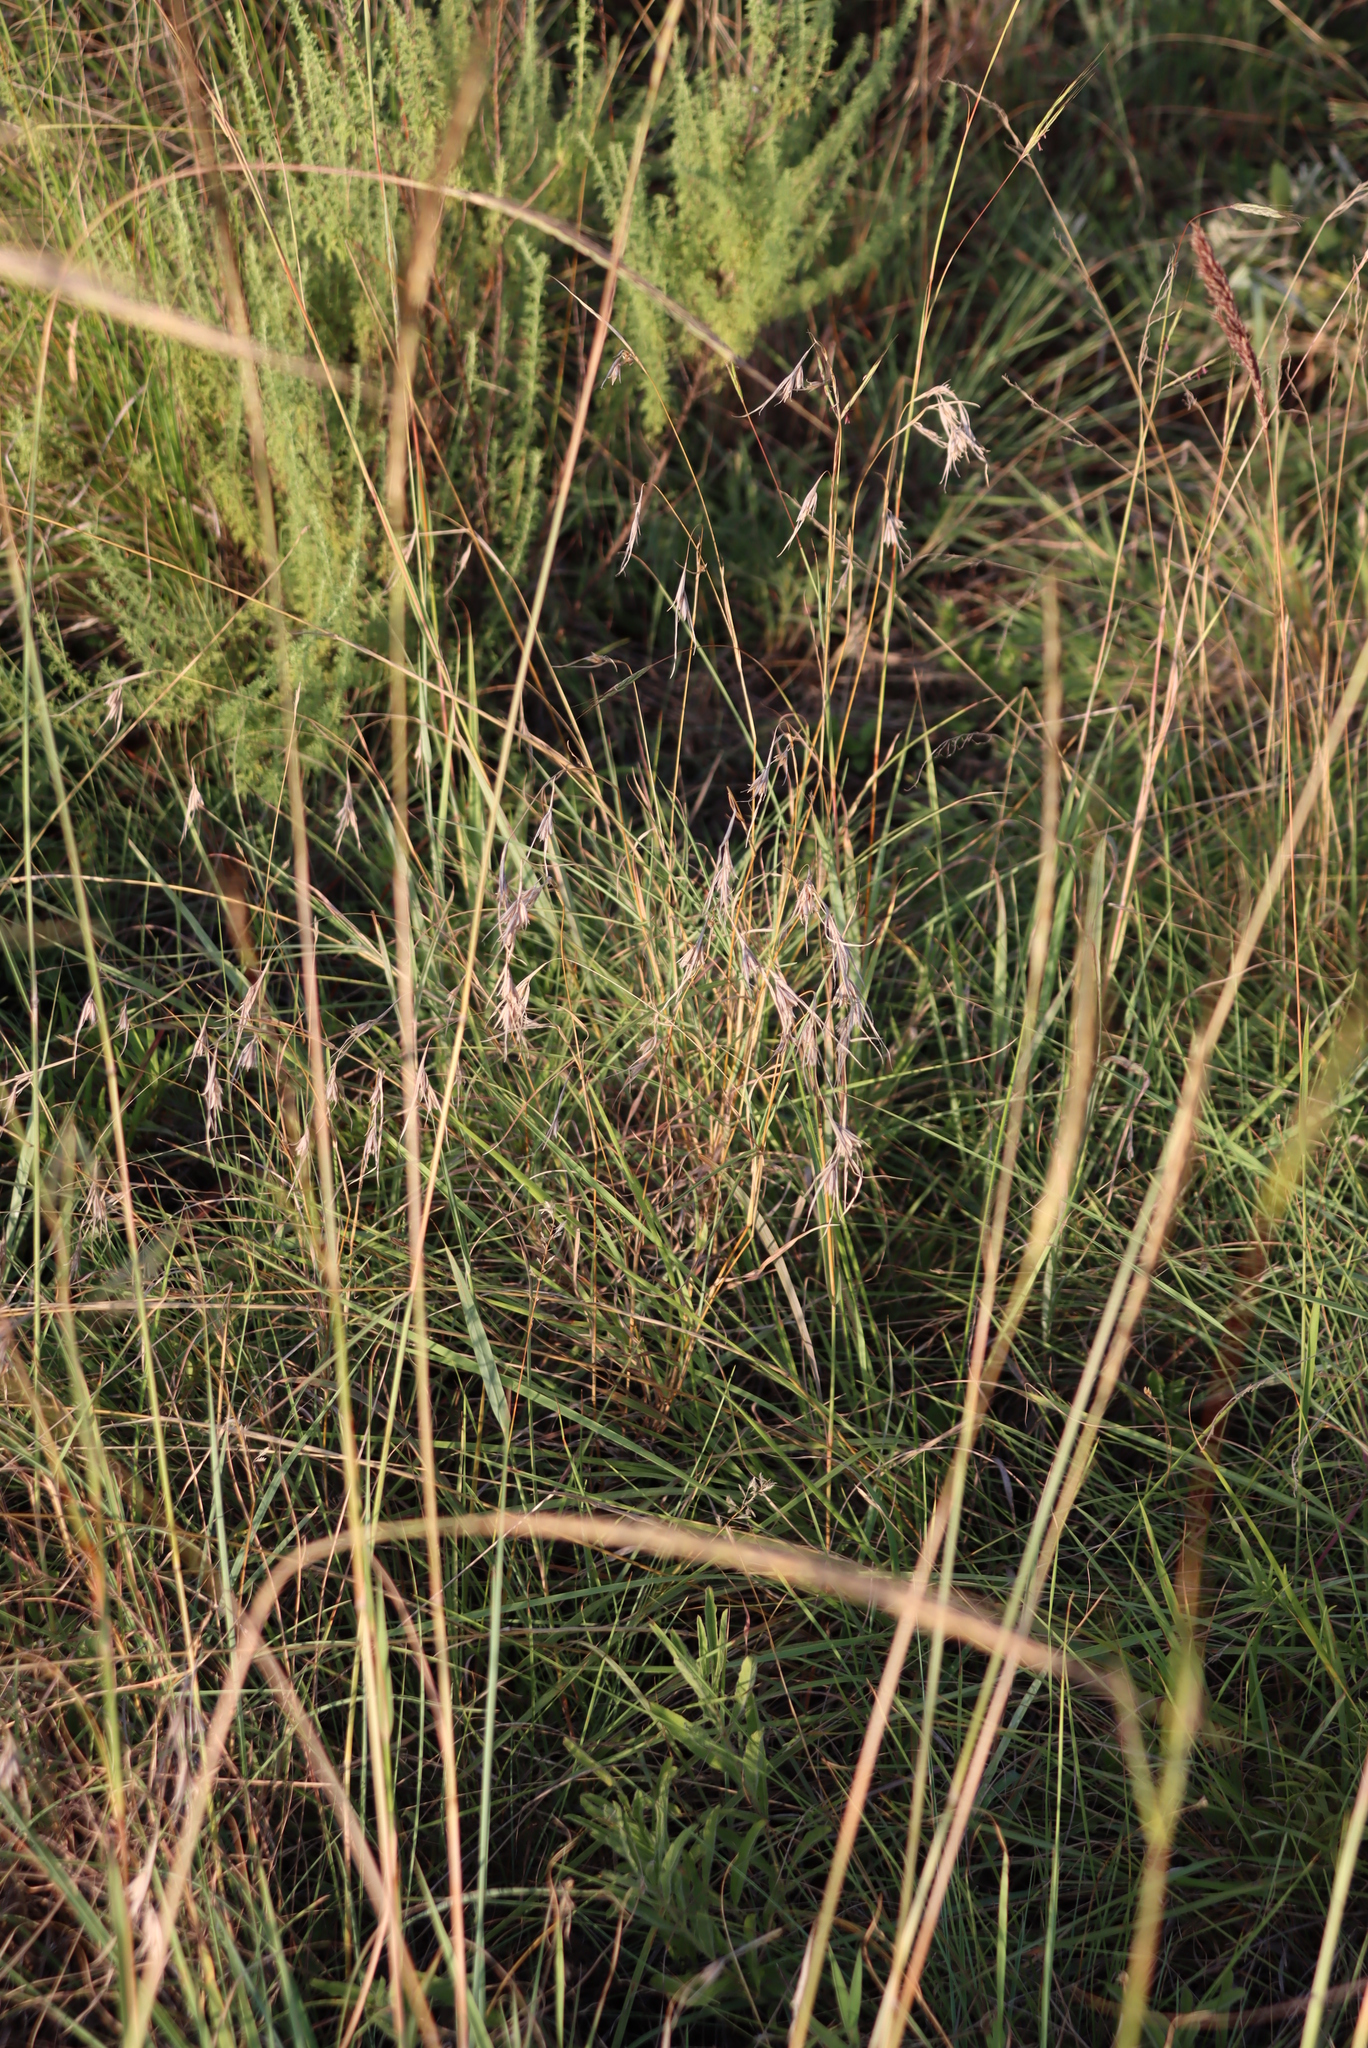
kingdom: Plantae
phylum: Tracheophyta
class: Liliopsida
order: Poales
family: Poaceae
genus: Themeda
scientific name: Themeda triandra
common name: Kangaroo grass
